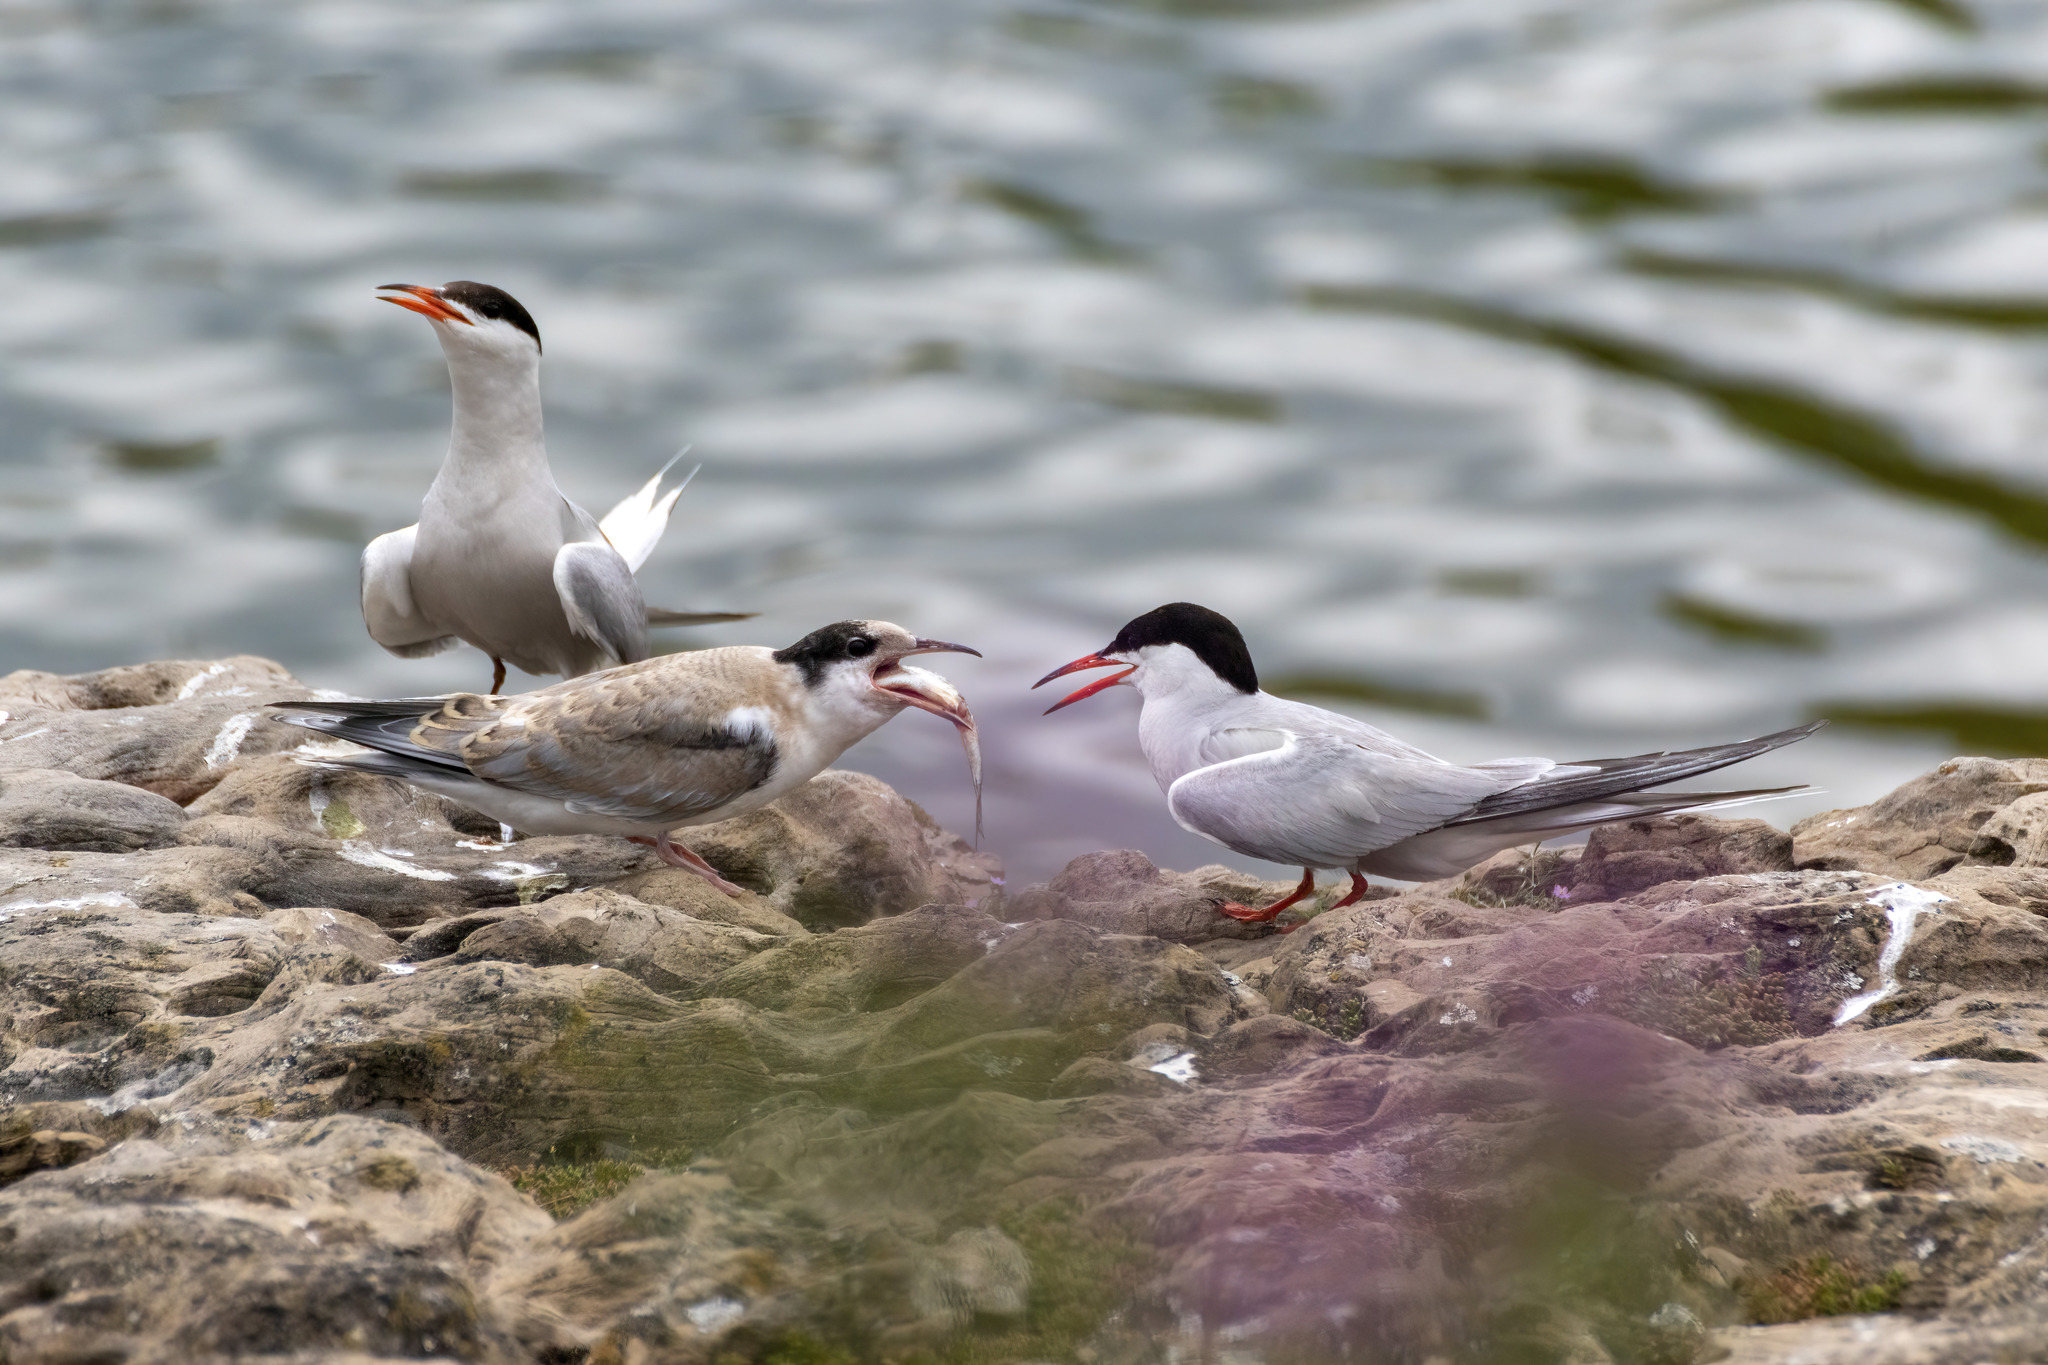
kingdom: Animalia
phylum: Chordata
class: Aves
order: Charadriiformes
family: Laridae
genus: Sterna
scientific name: Sterna hirundo
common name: Common tern
